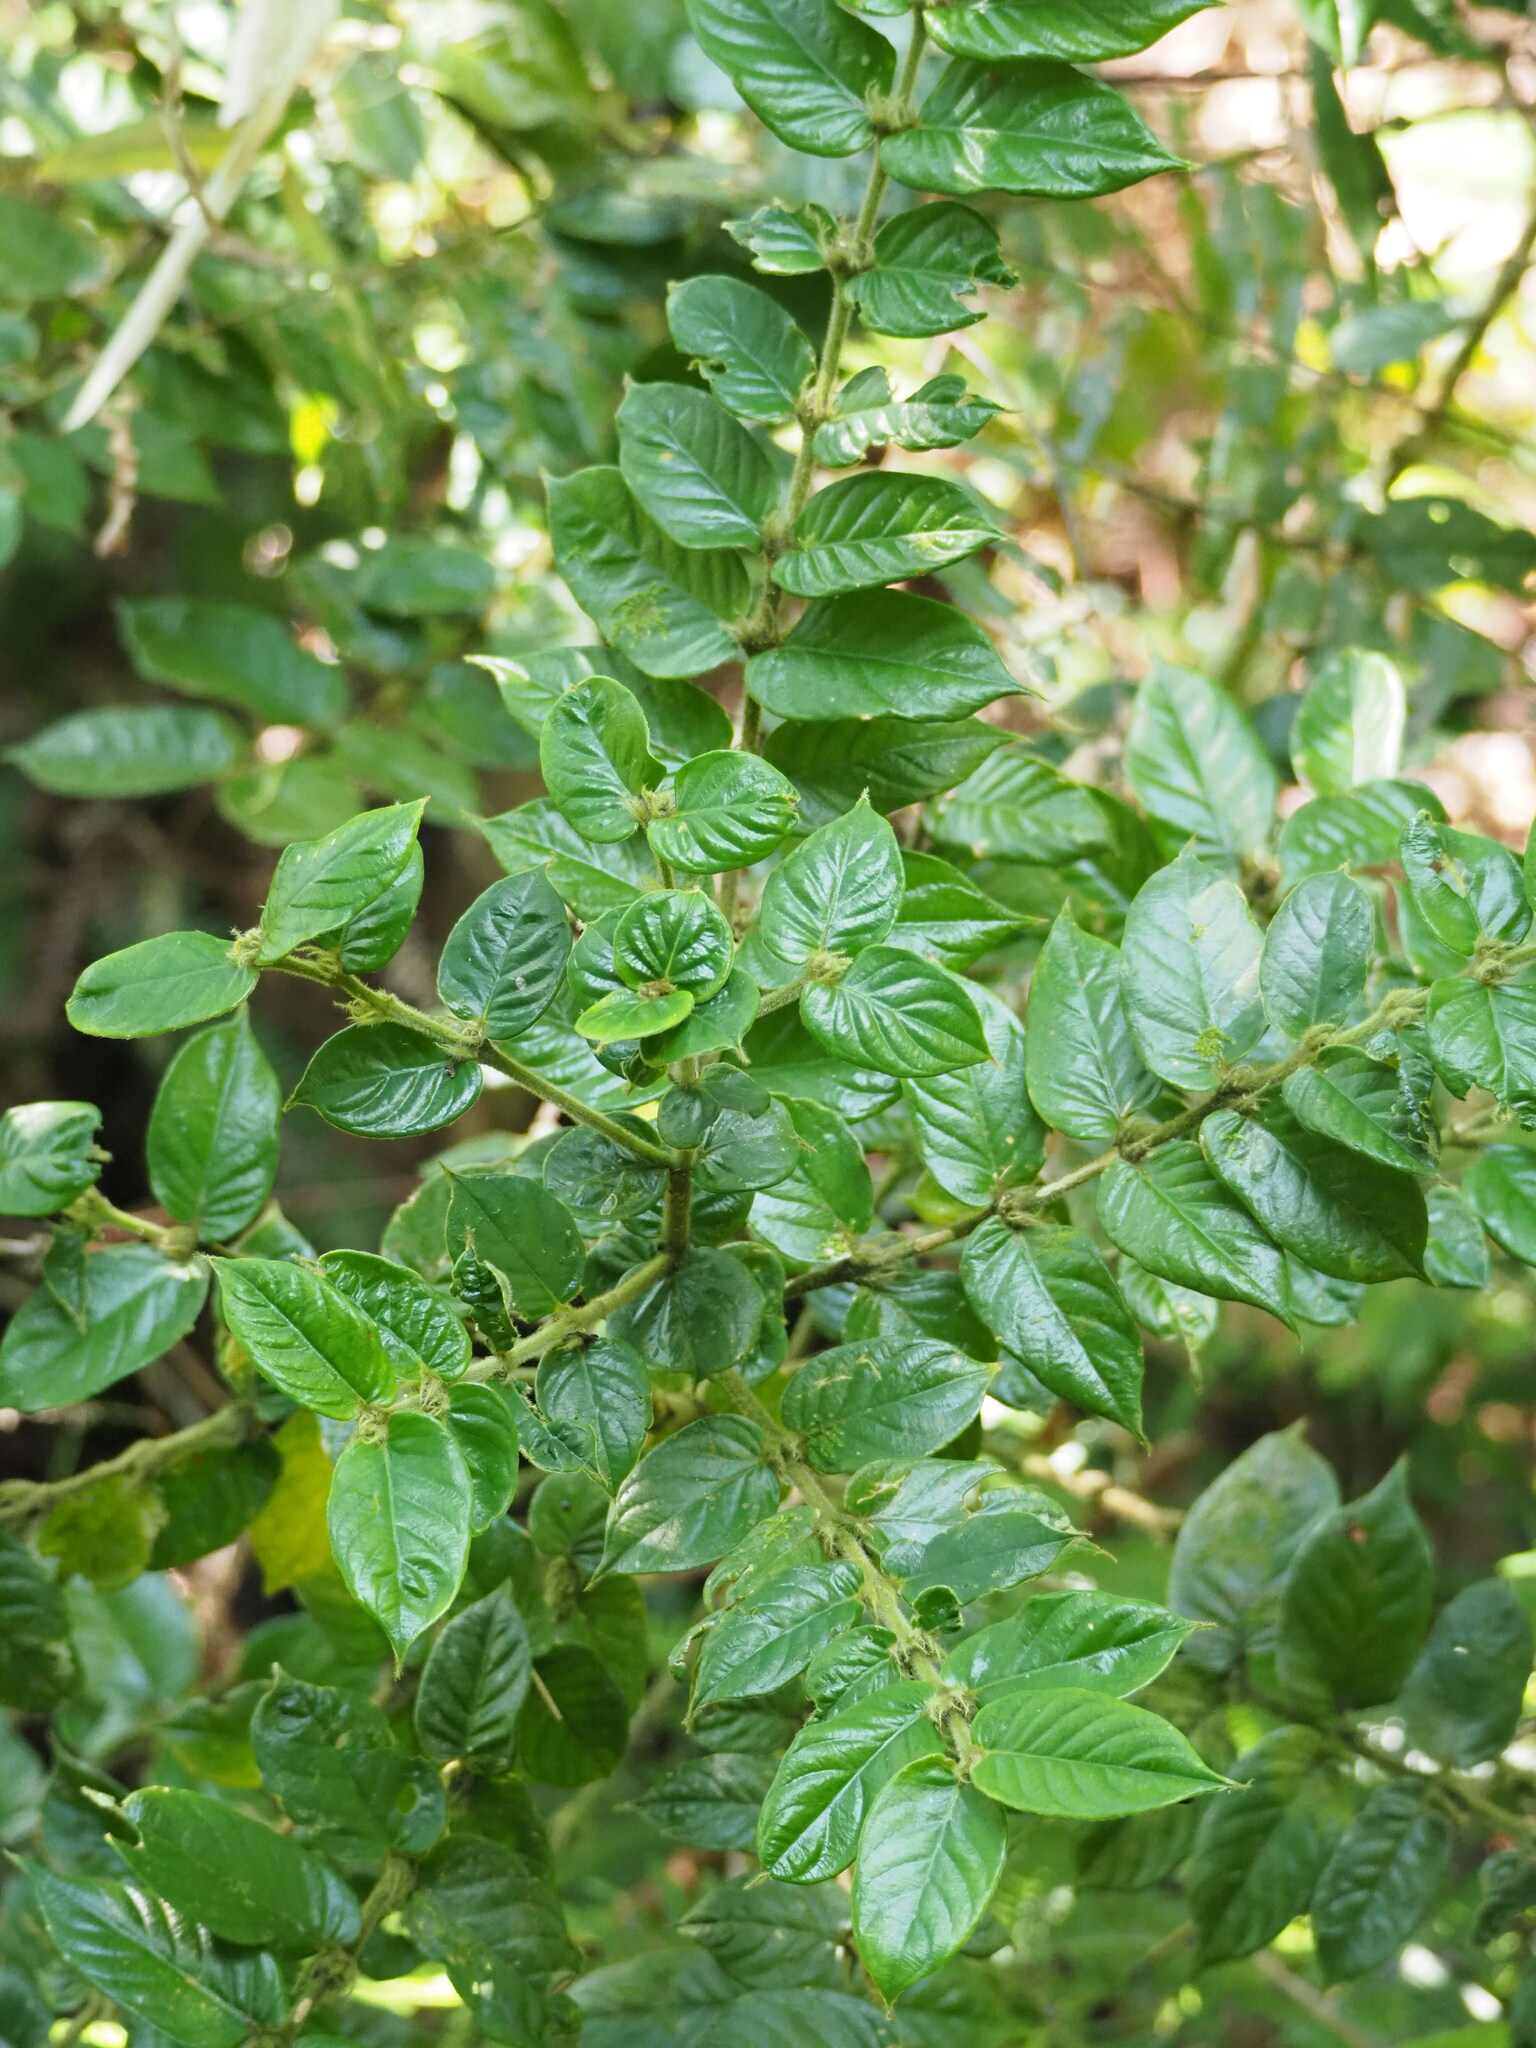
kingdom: Plantae
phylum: Tracheophyta
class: Magnoliopsida
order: Gentianales
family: Rubiaceae
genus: Lasianthus
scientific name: Lasianthus attenuatus
